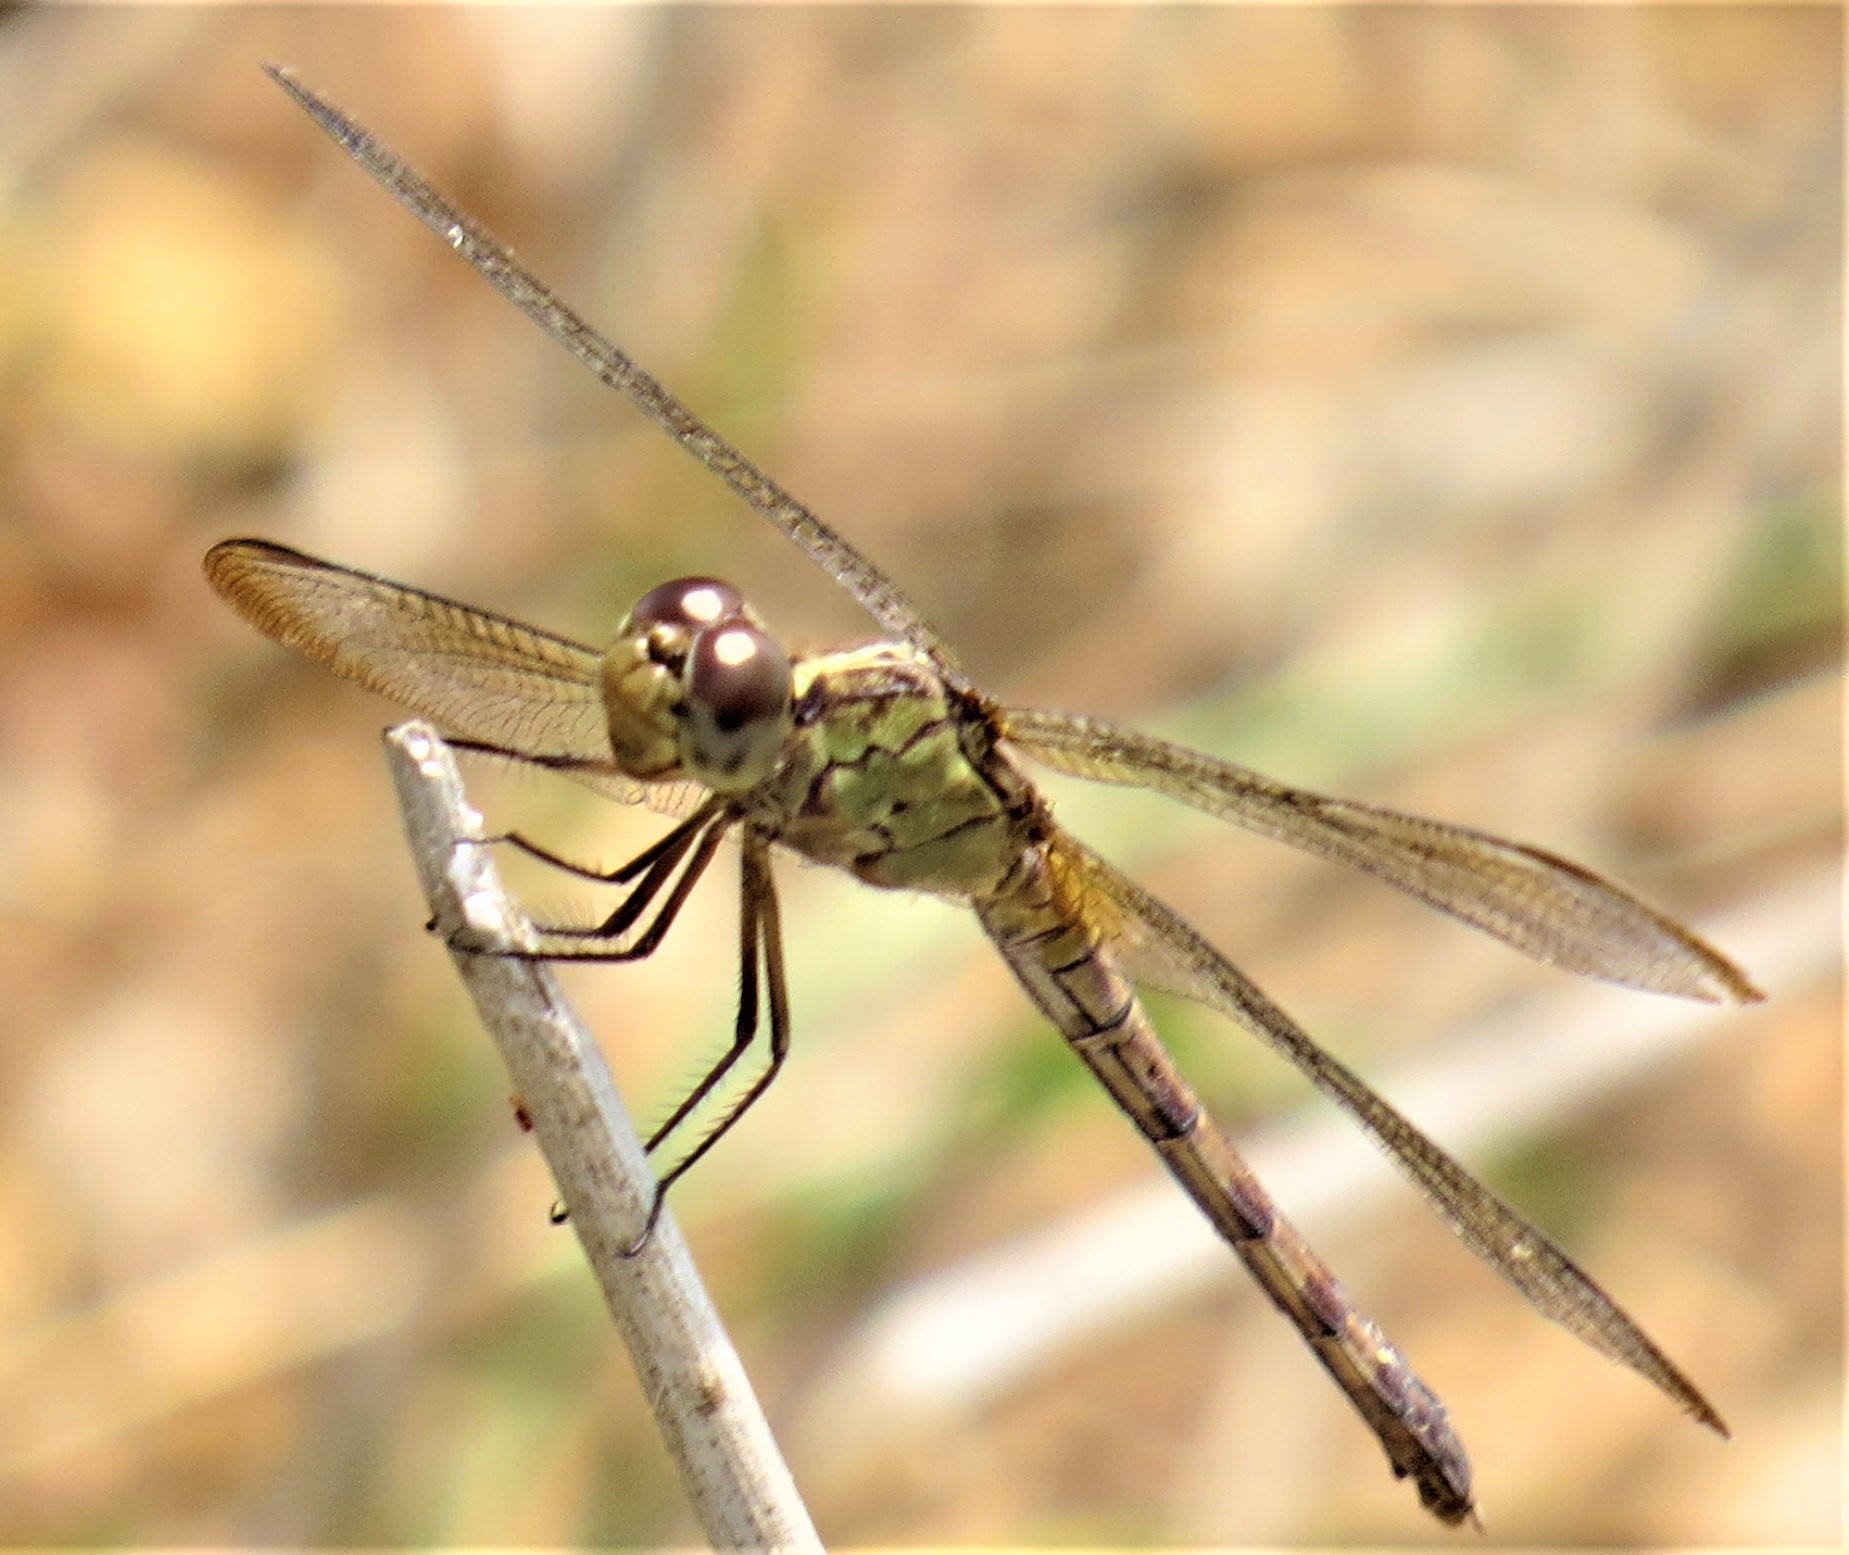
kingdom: Animalia
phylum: Arthropoda
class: Insecta
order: Odonata
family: Libellulidae
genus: Erythrodiplax
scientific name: Erythrodiplax umbrata
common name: Band-winged dragonlet
